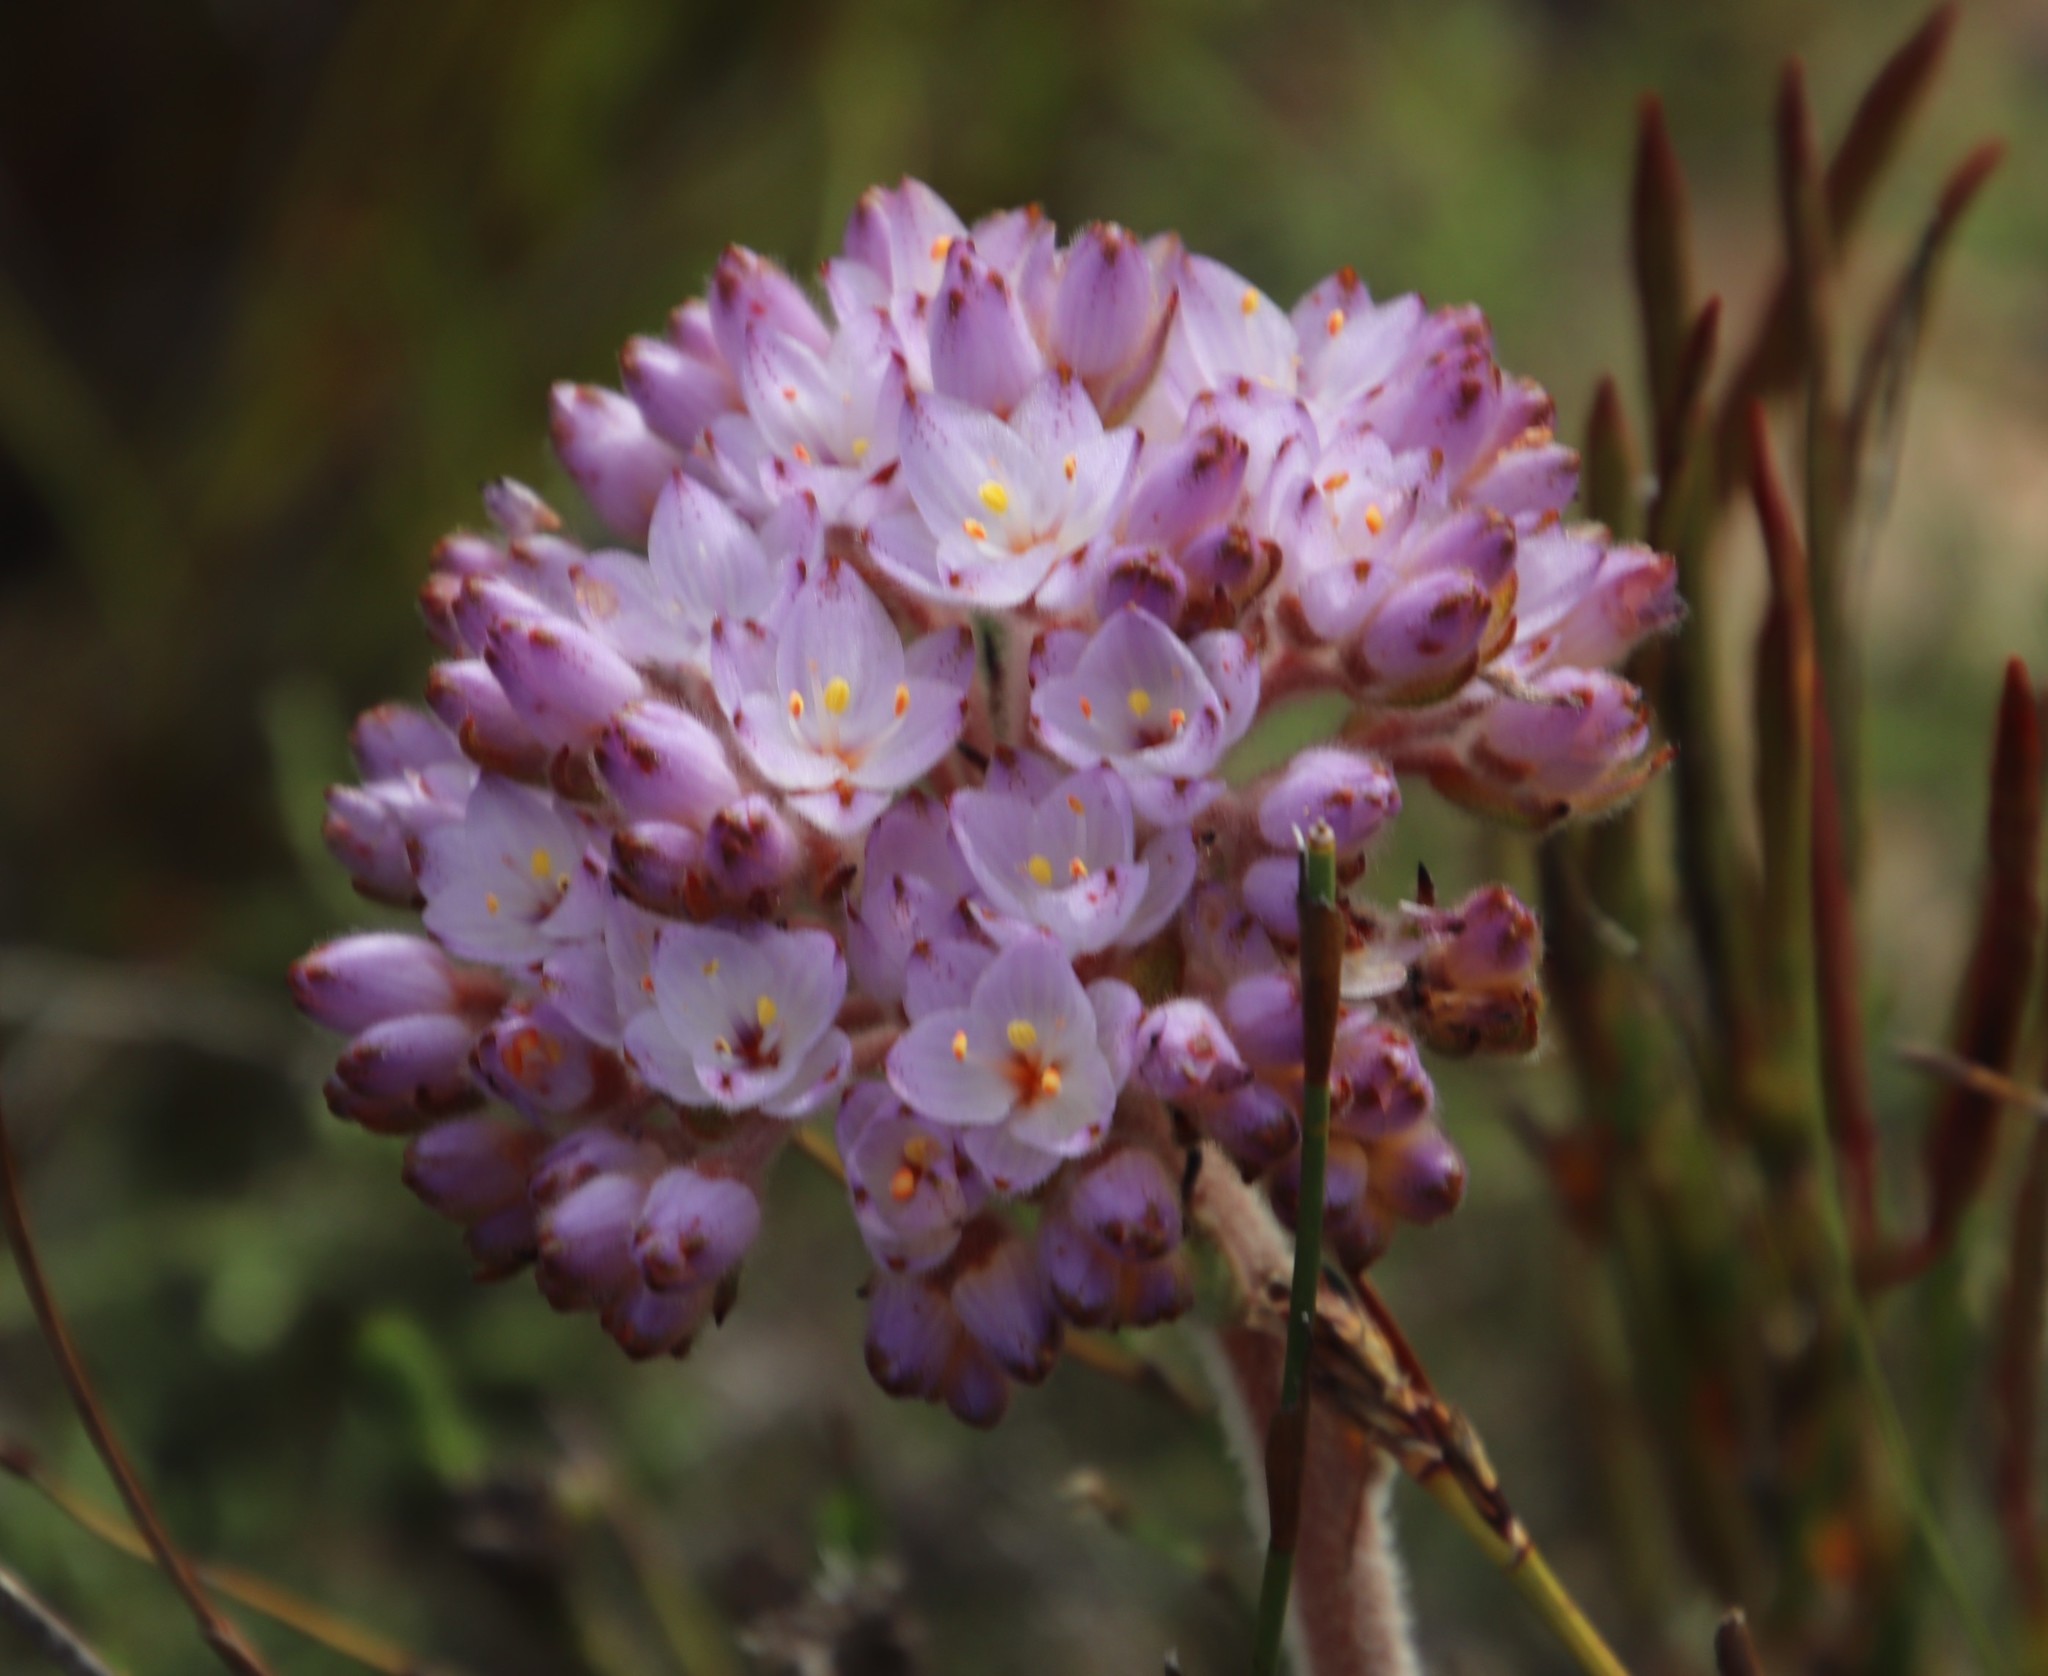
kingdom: Plantae
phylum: Tracheophyta
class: Liliopsida
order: Commelinales
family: Haemodoraceae
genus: Dilatris
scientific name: Dilatris pillansii
